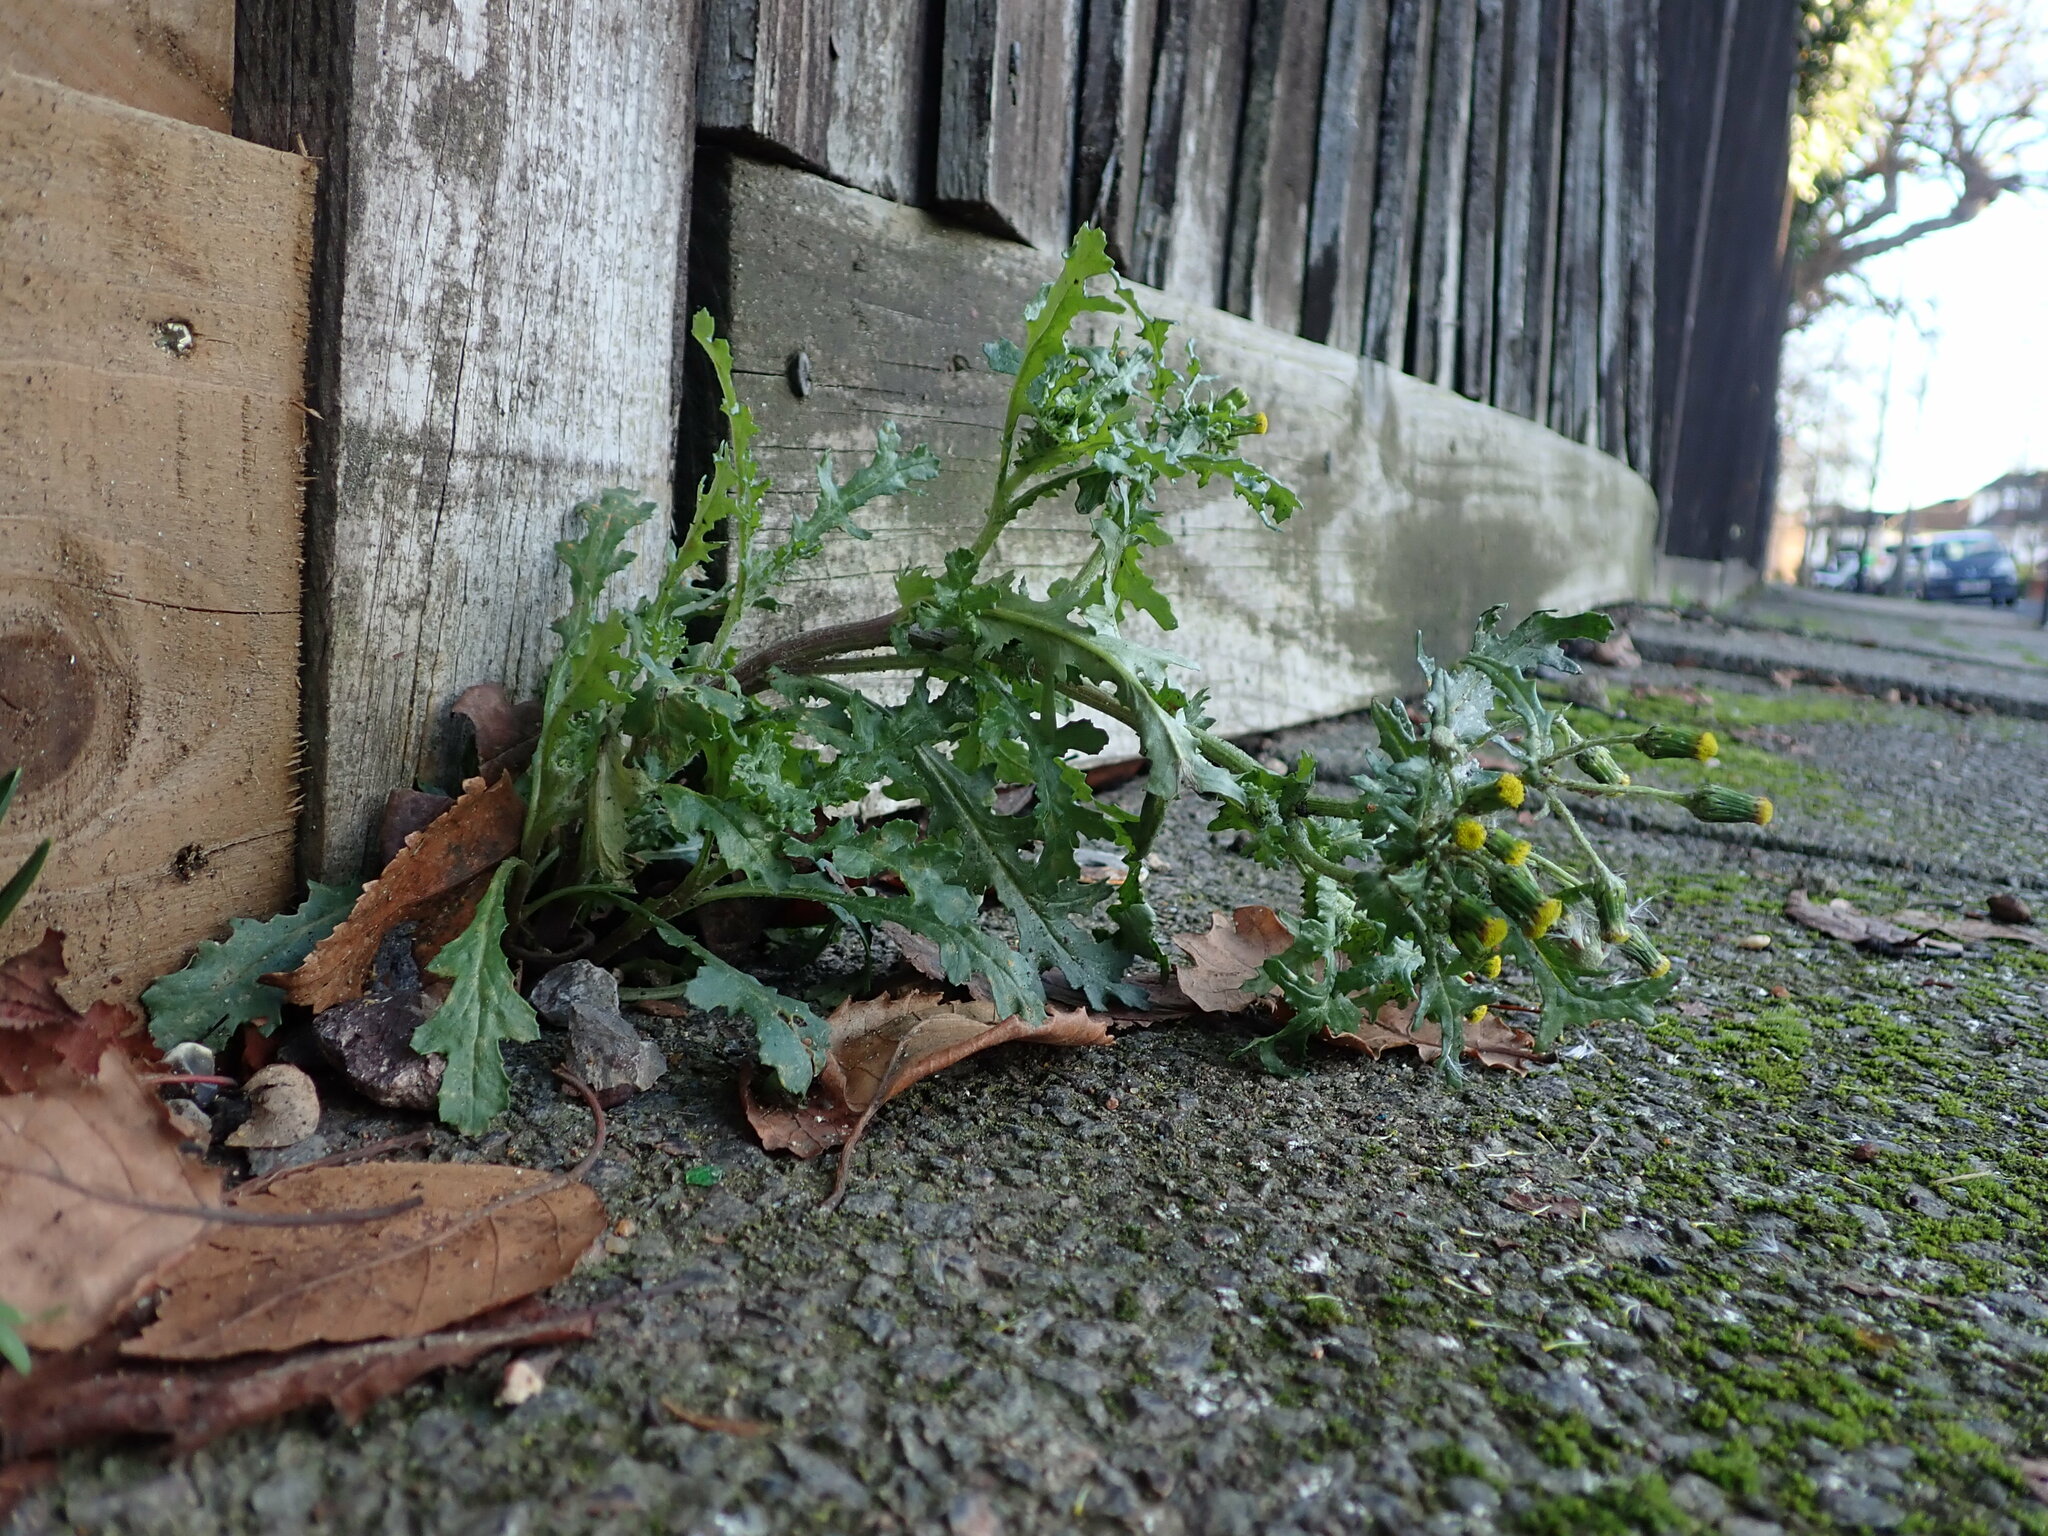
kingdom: Plantae
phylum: Tracheophyta
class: Magnoliopsida
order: Asterales
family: Asteraceae
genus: Senecio
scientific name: Senecio vulgaris
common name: Old-man-in-the-spring
